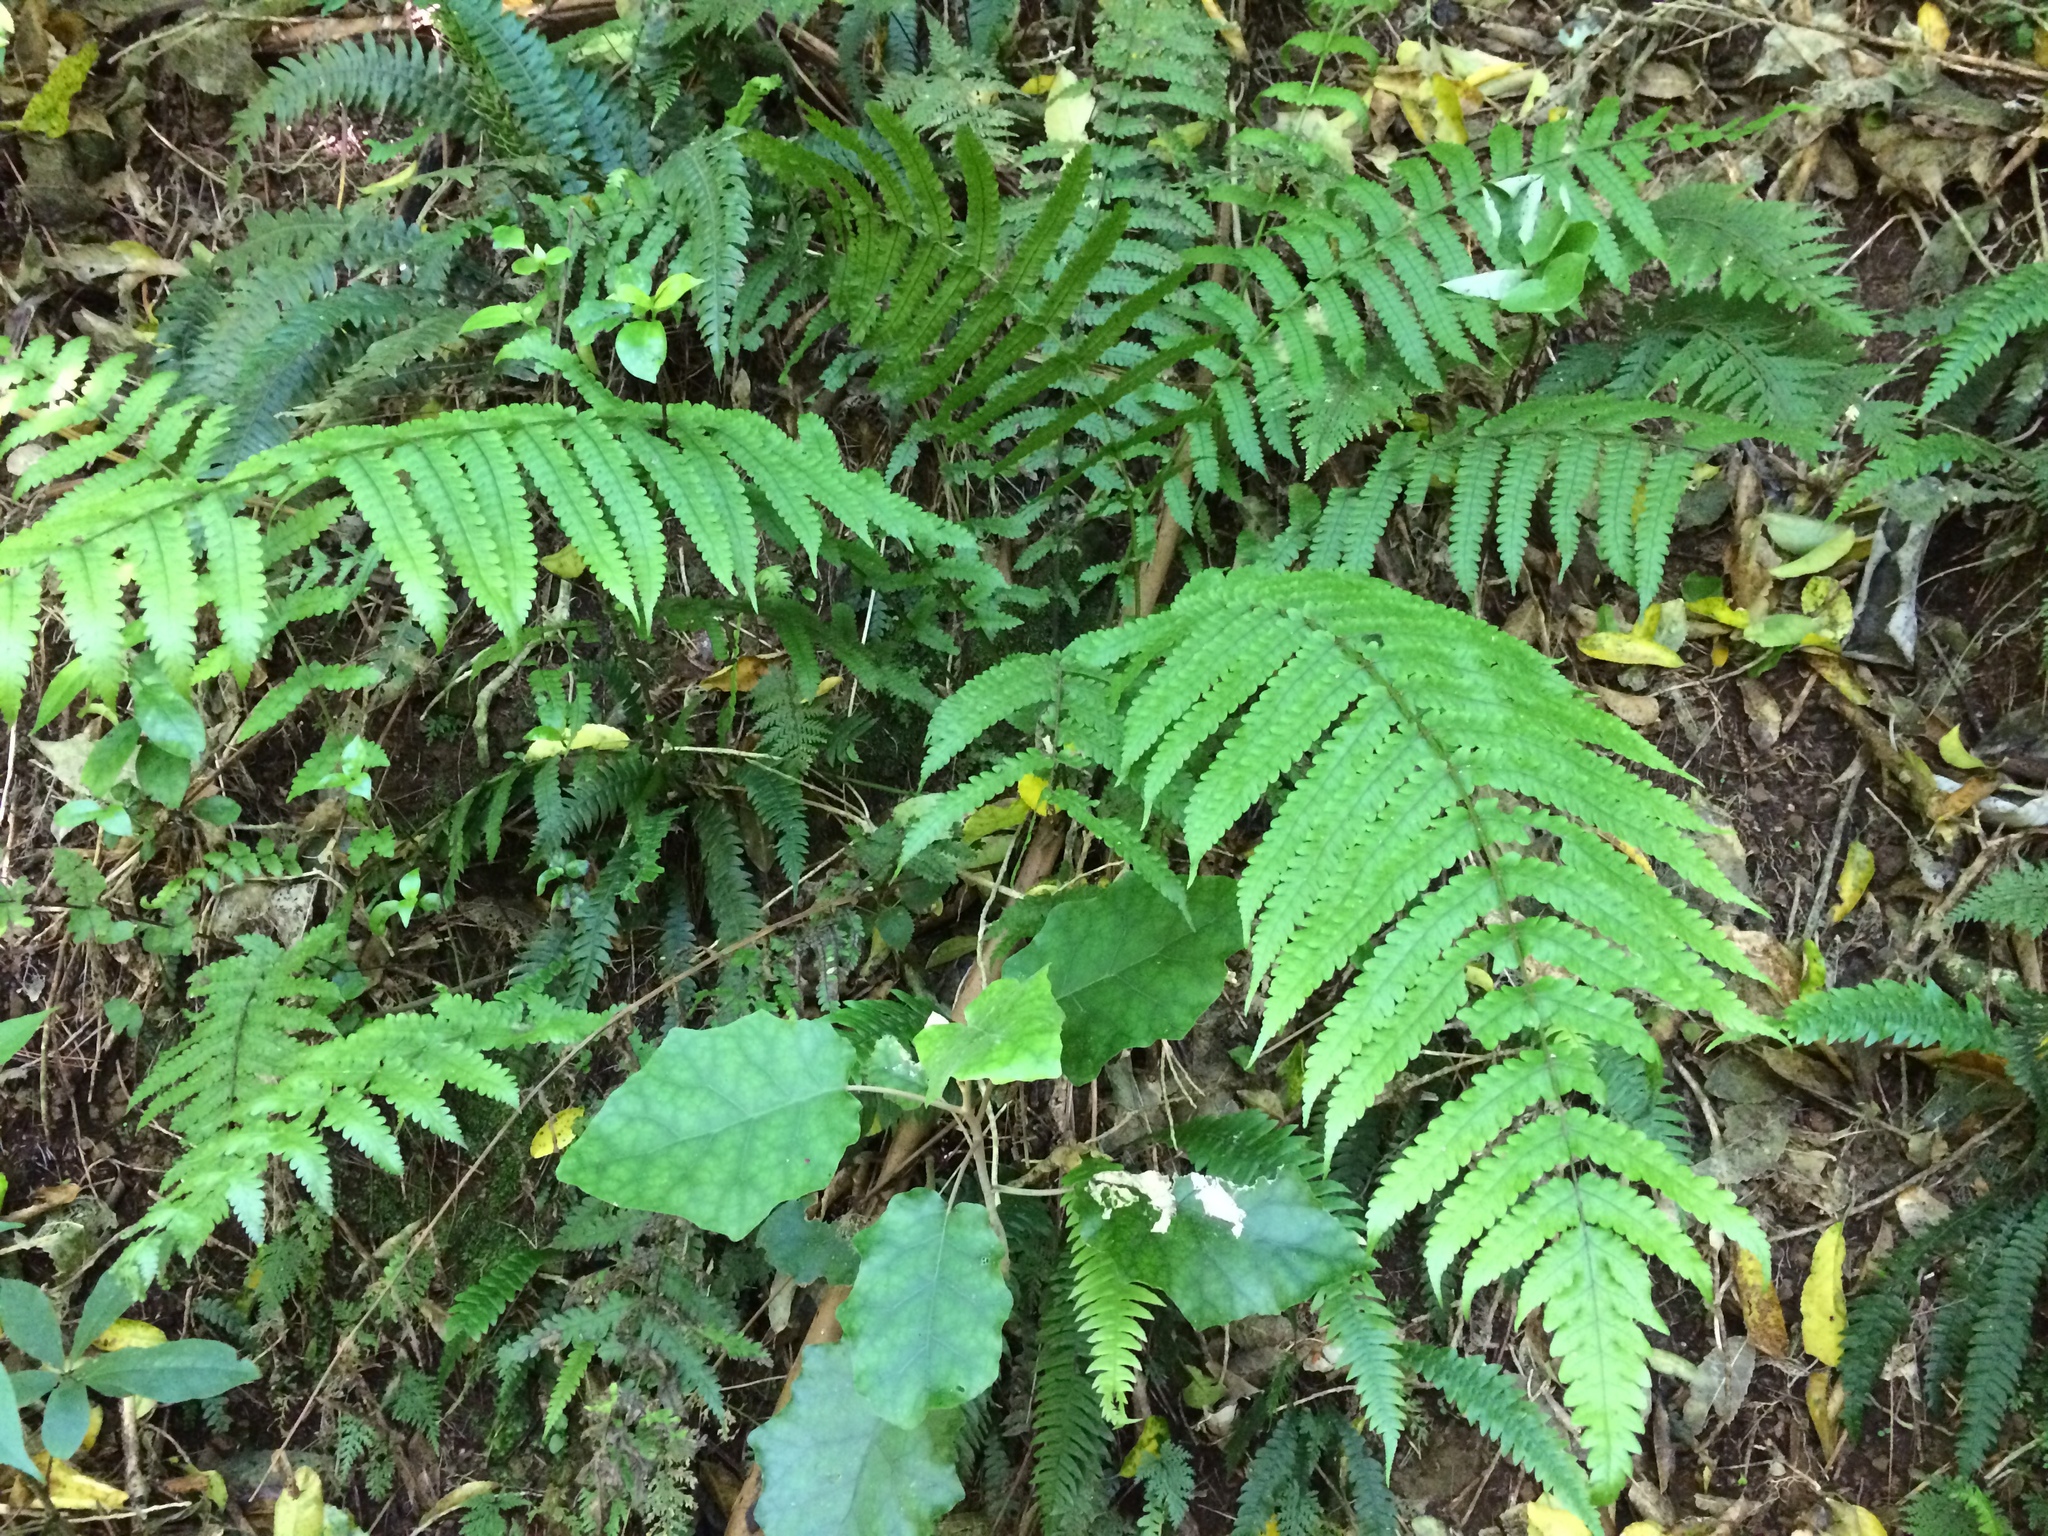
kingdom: Plantae
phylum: Tracheophyta
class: Polypodiopsida
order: Polypodiales
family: Thelypteridaceae
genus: Pakau
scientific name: Pakau pennigera
